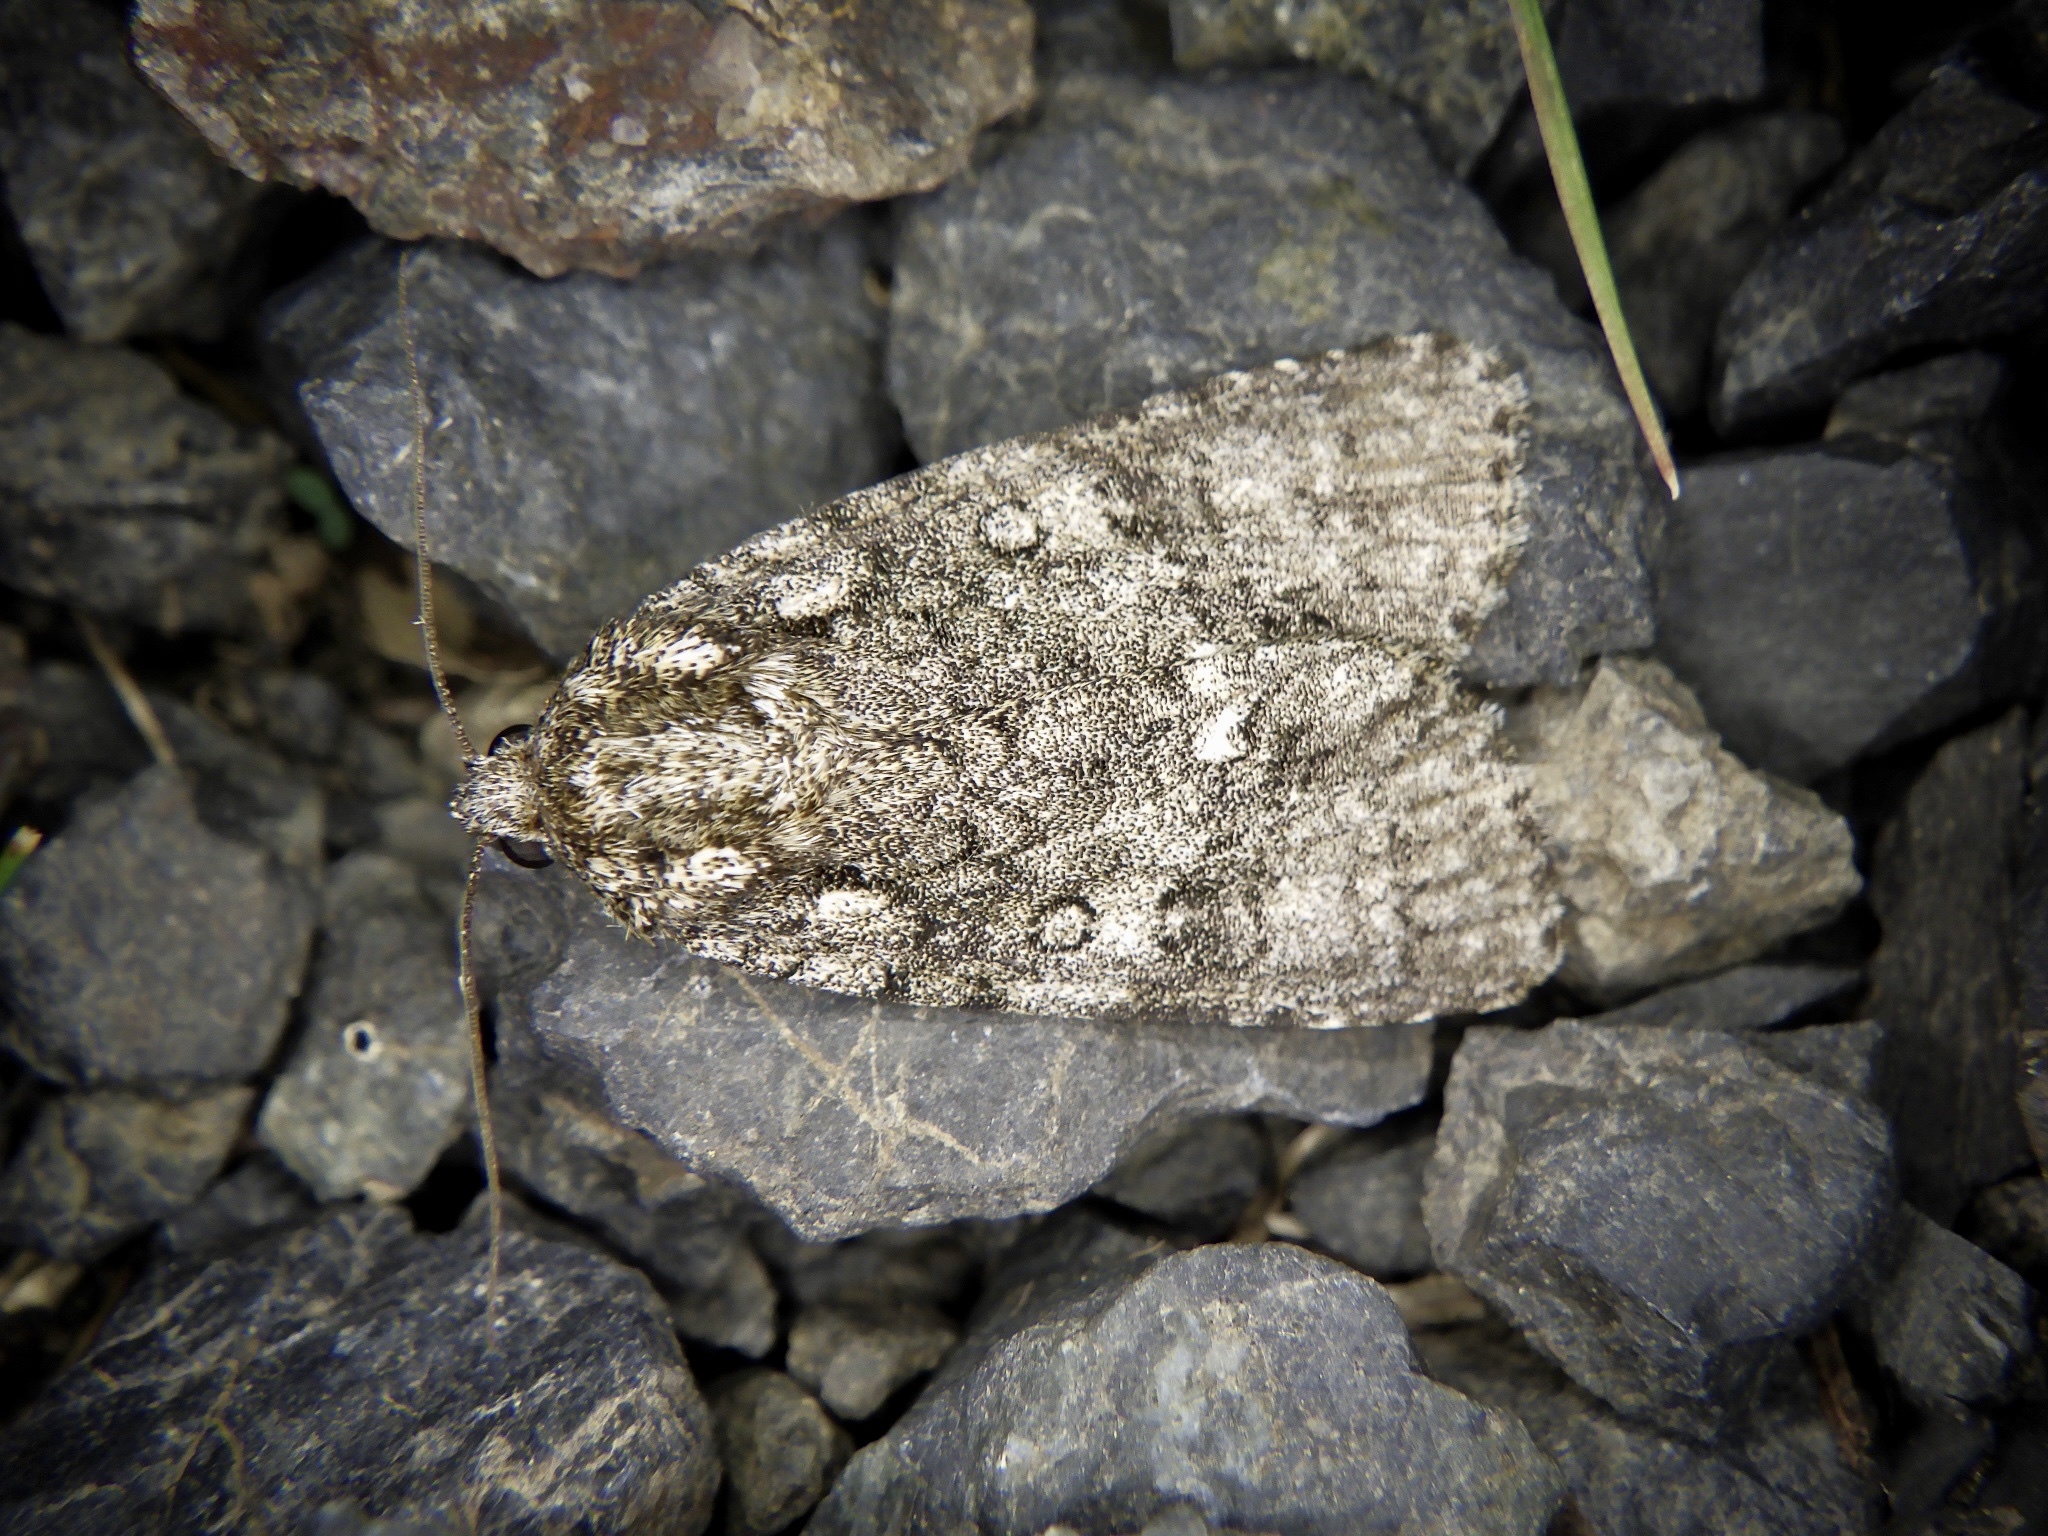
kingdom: Animalia
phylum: Arthropoda
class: Insecta
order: Lepidoptera
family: Noctuidae
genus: Acronicta
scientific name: Acronicta rumicis
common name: Knot grass
